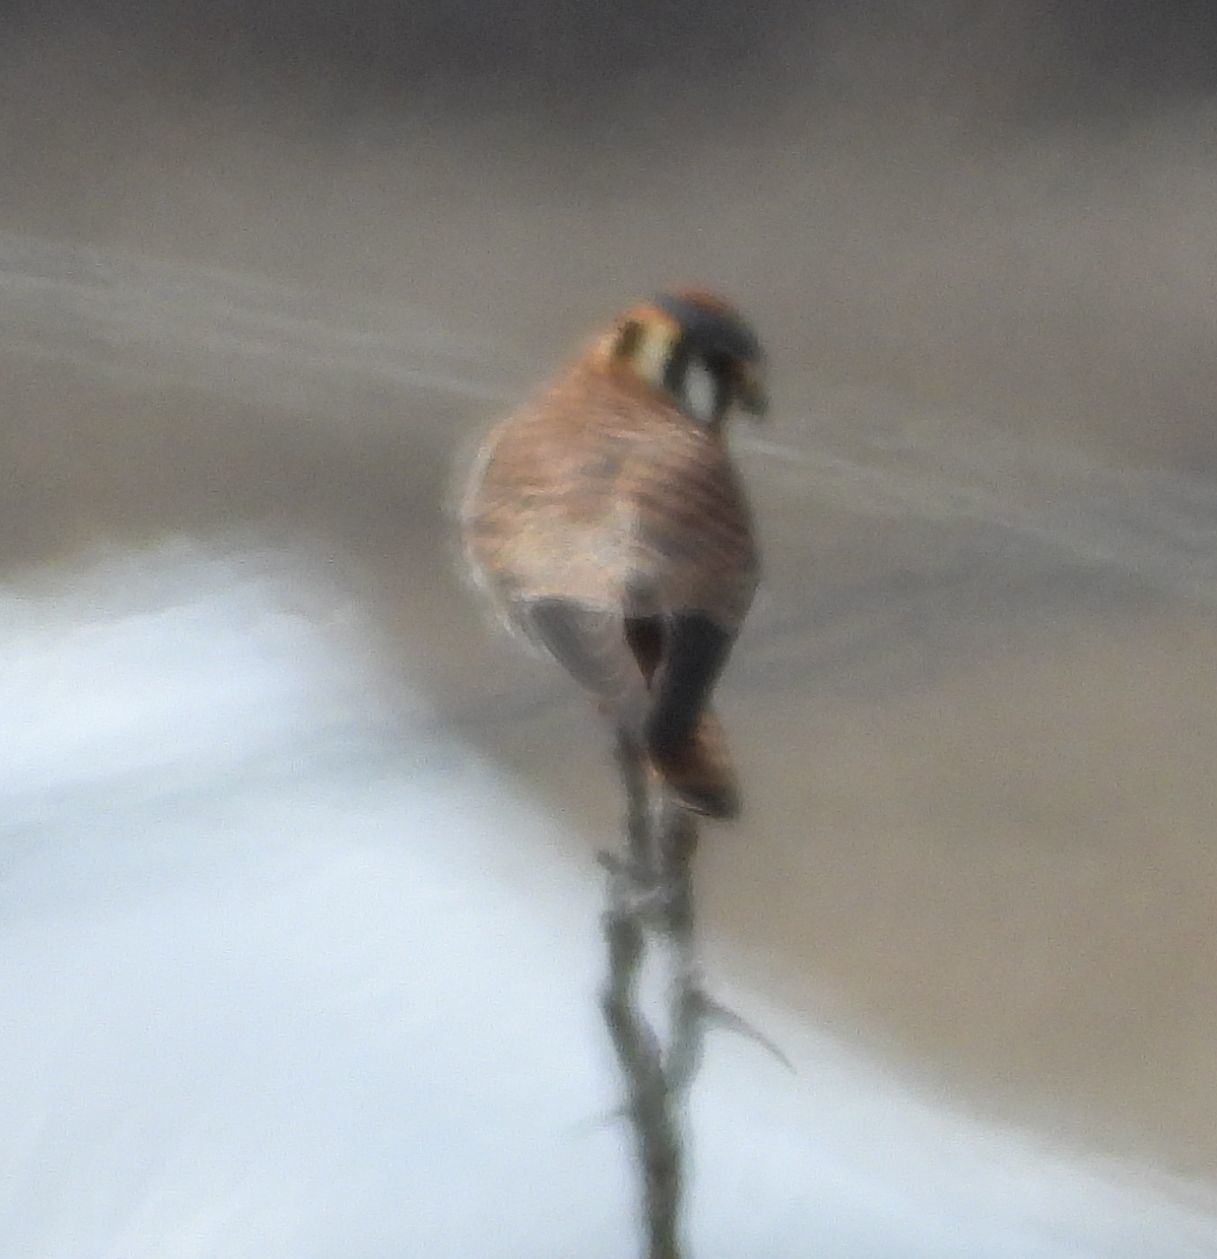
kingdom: Animalia
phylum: Chordata
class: Aves
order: Falconiformes
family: Falconidae
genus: Falco
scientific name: Falco sparverius
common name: American kestrel
